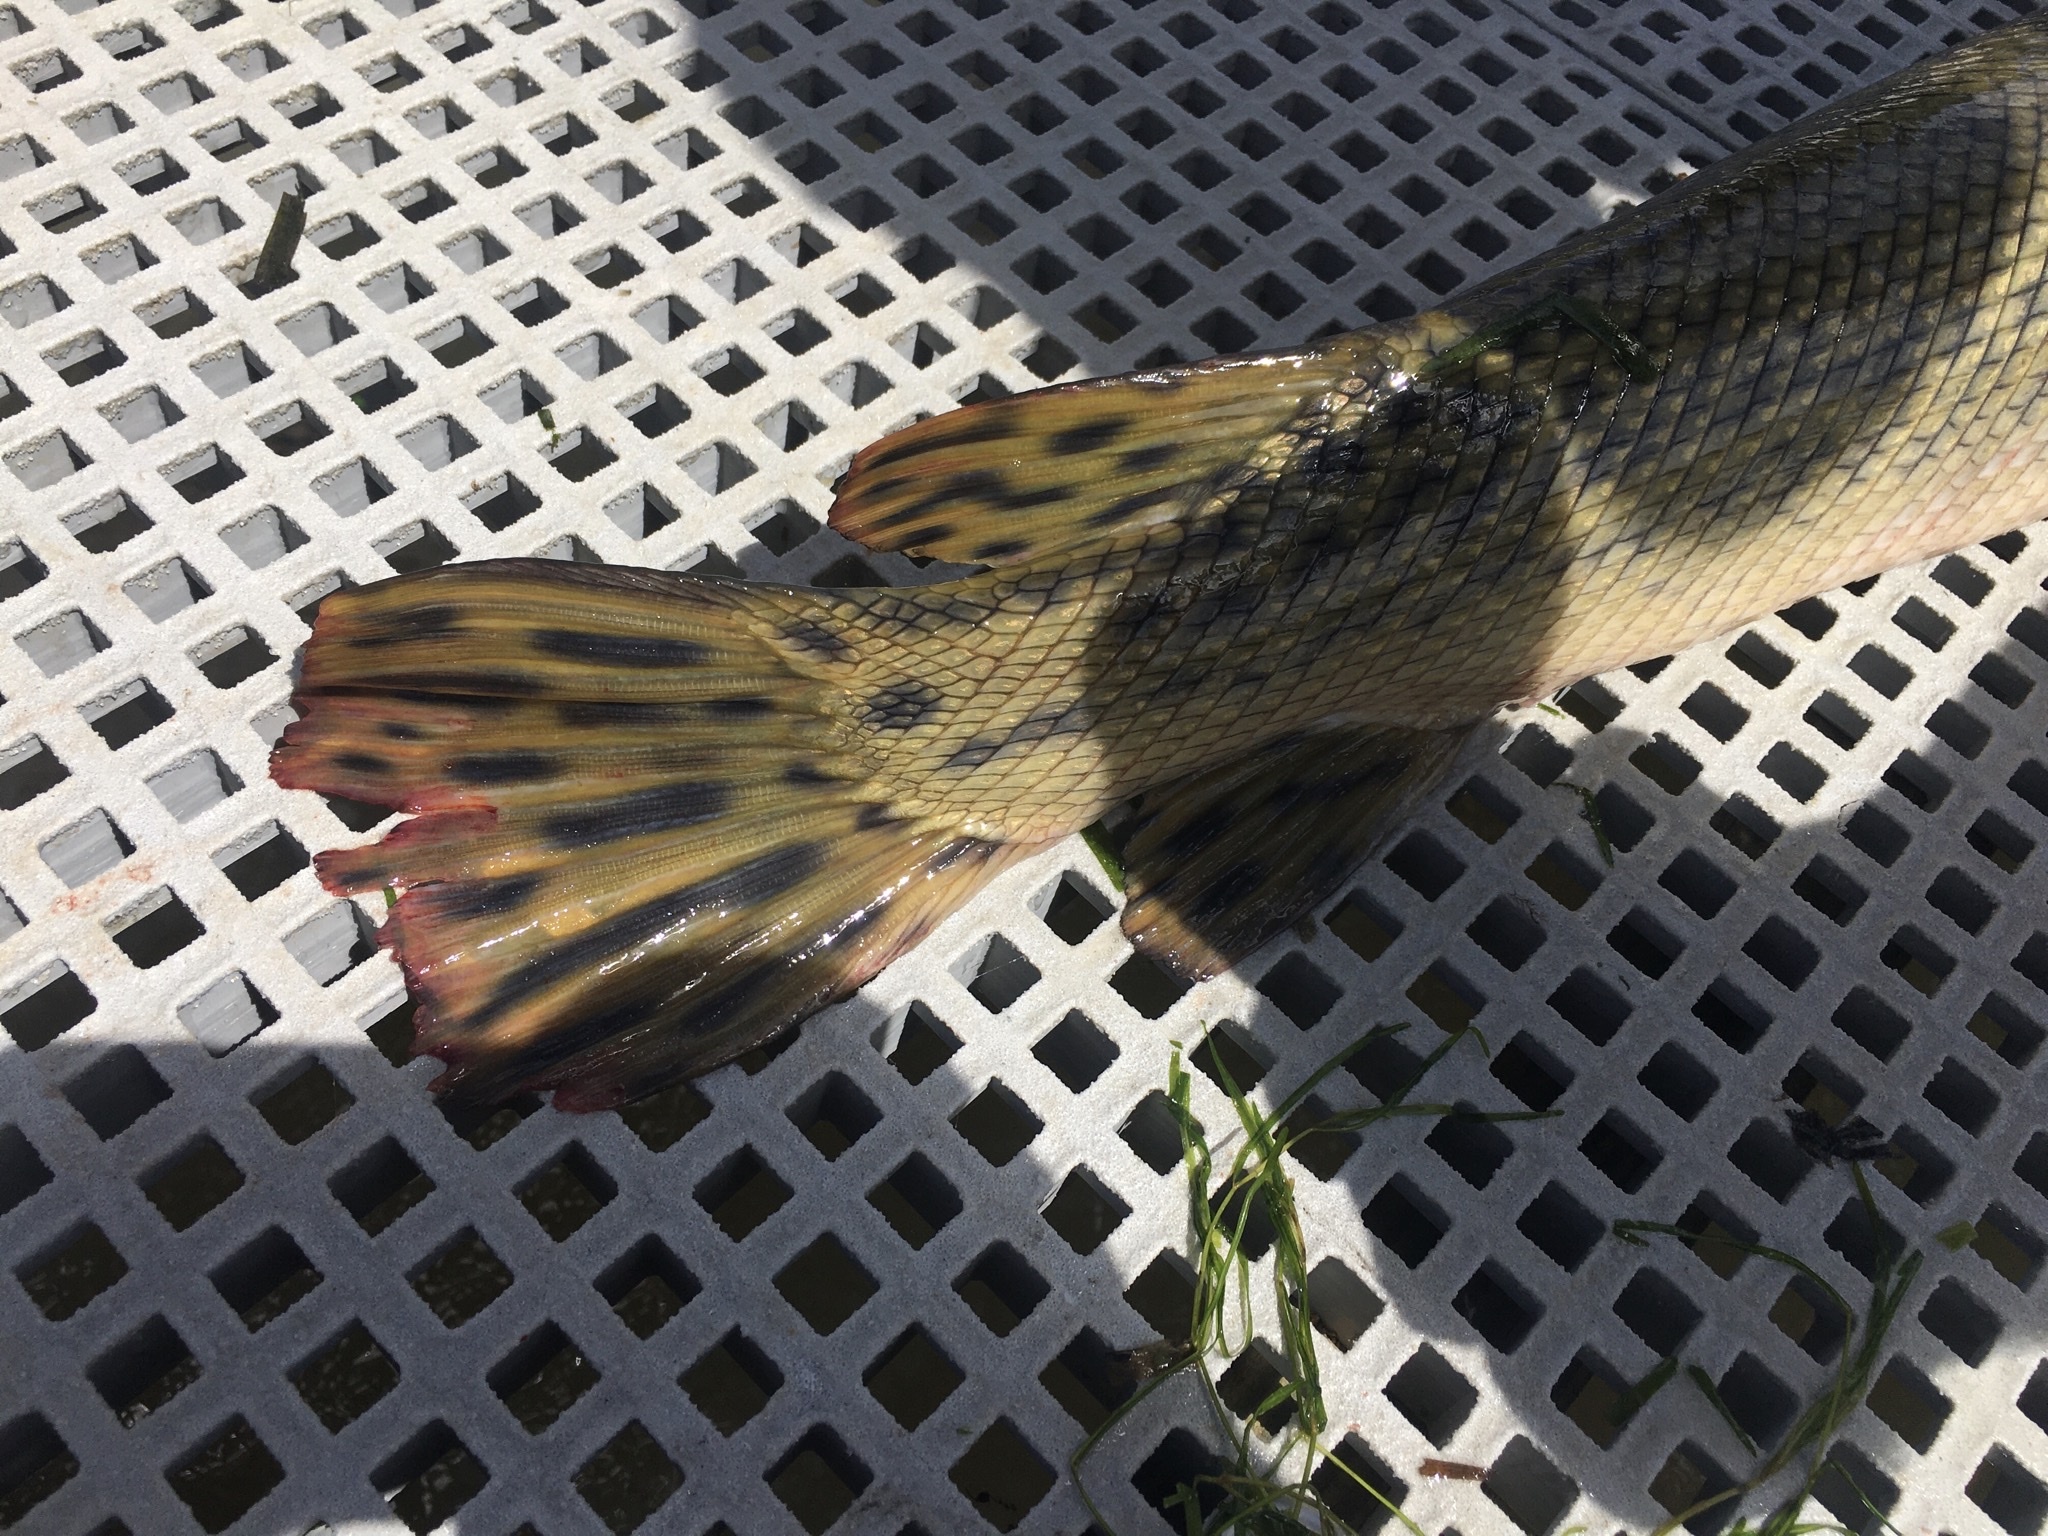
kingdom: Animalia
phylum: Chordata
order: Lepisosteiformes
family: Lepisosteidae
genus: Atractosteus
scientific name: Atractosteus spatula
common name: Alligator gar
